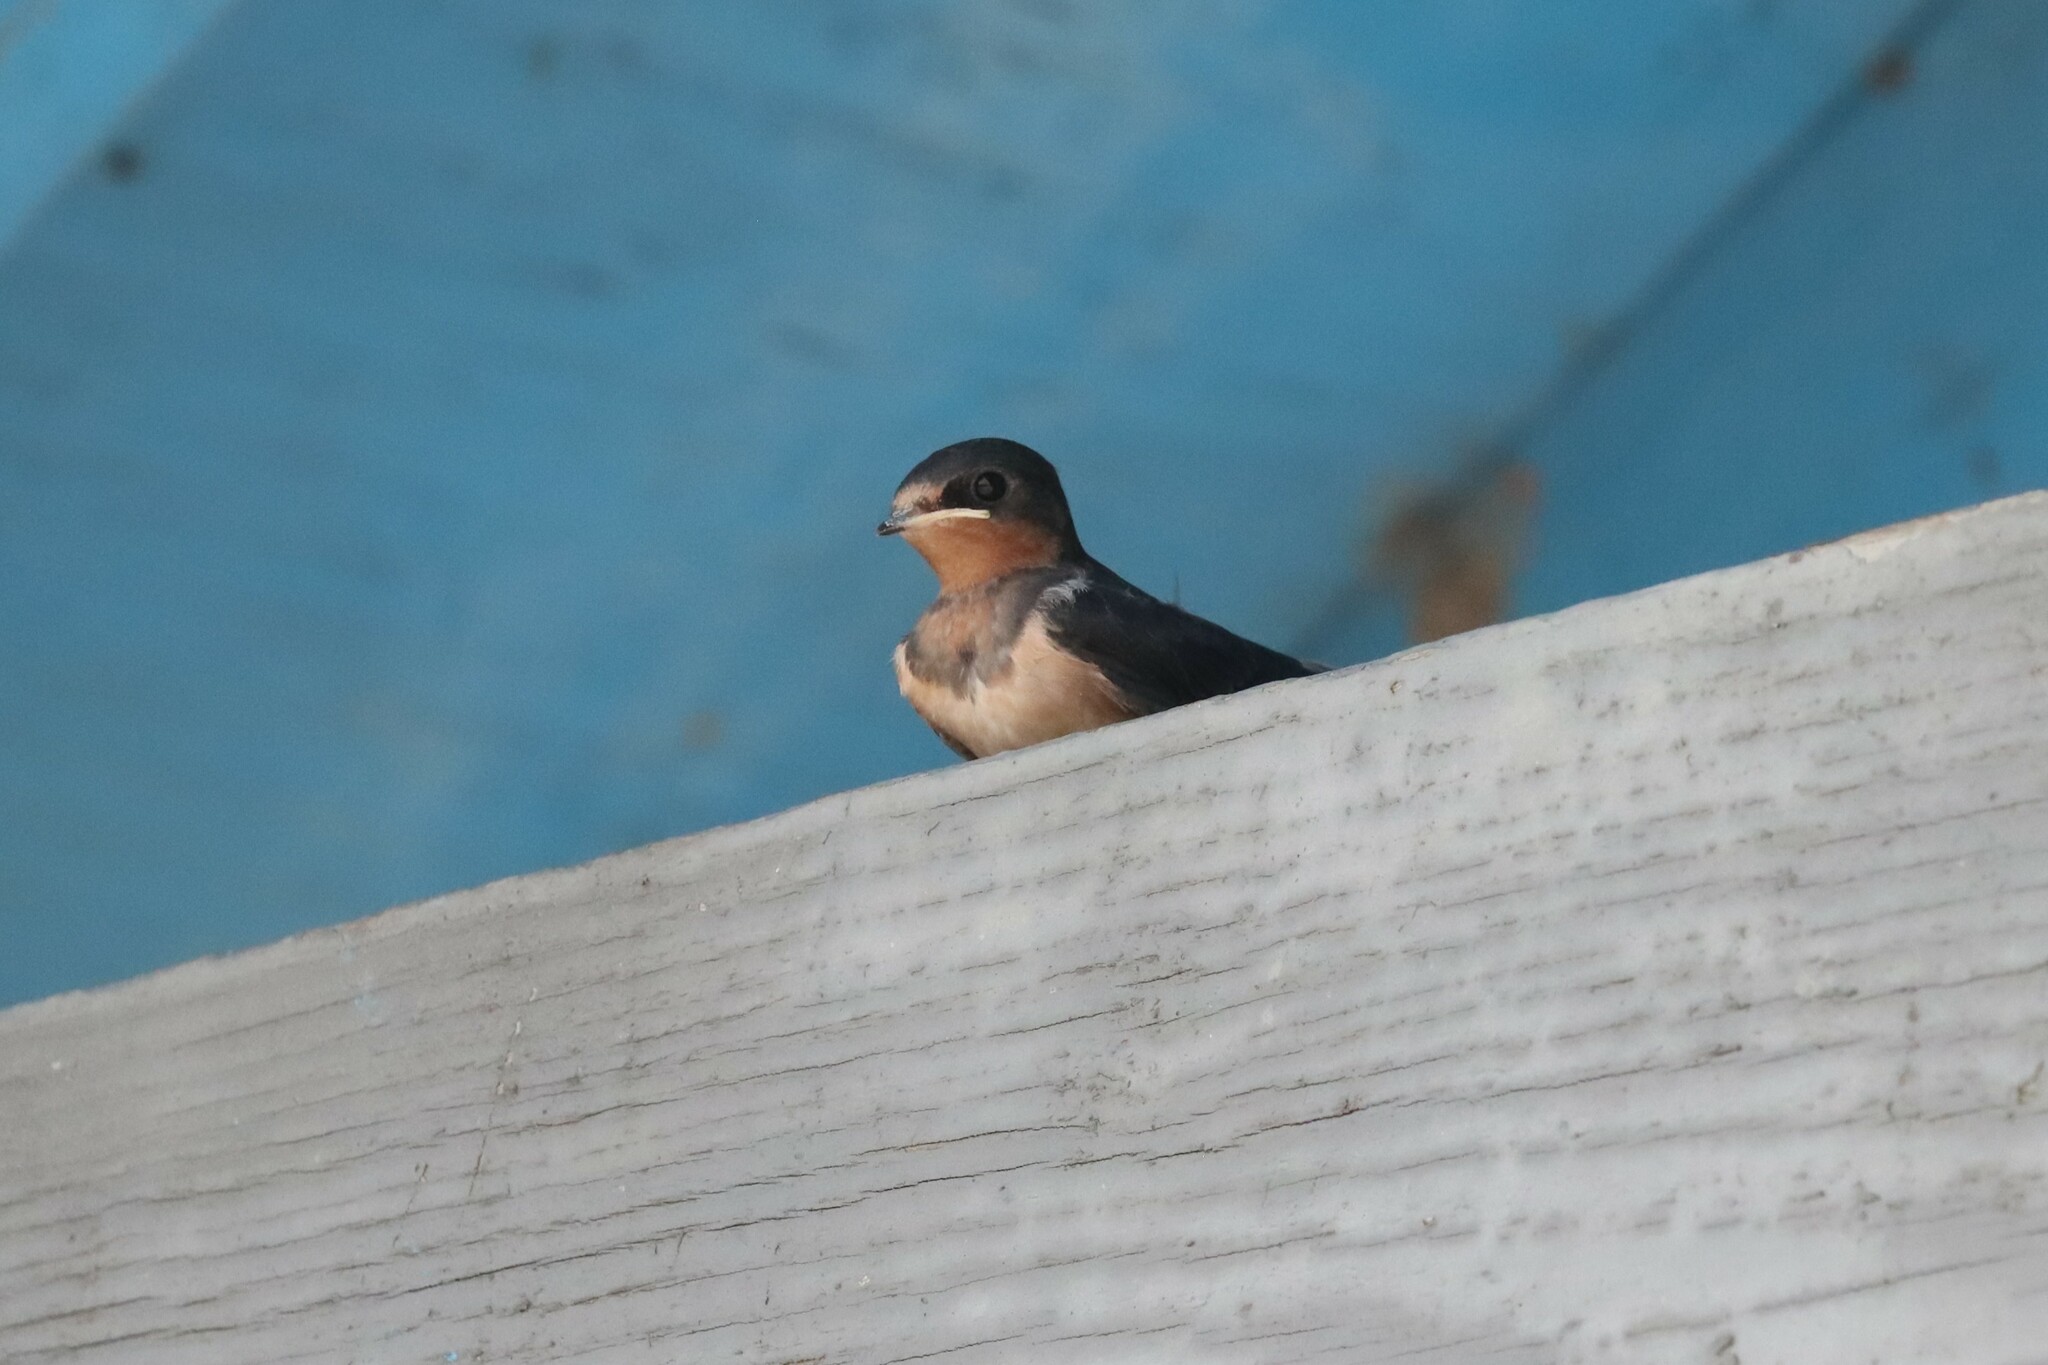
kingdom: Animalia
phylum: Chordata
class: Aves
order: Passeriformes
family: Hirundinidae
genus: Hirundo
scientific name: Hirundo rustica
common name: Barn swallow
